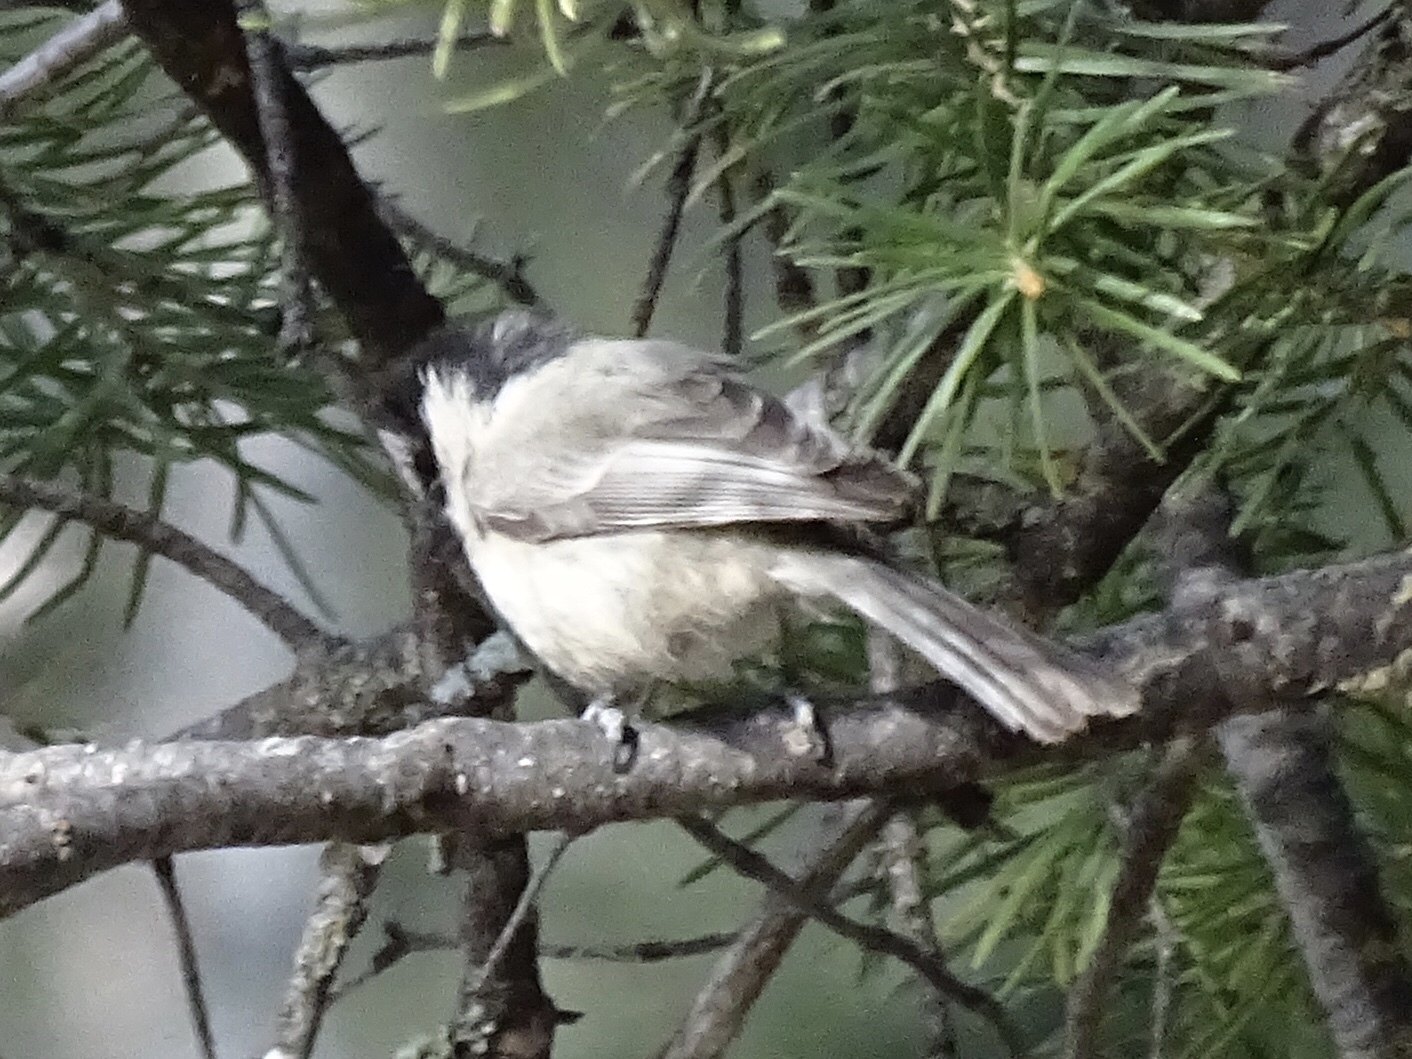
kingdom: Animalia
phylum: Chordata
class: Aves
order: Passeriformes
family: Paridae
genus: Poecile
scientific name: Poecile gambeli
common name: Mountain chickadee
